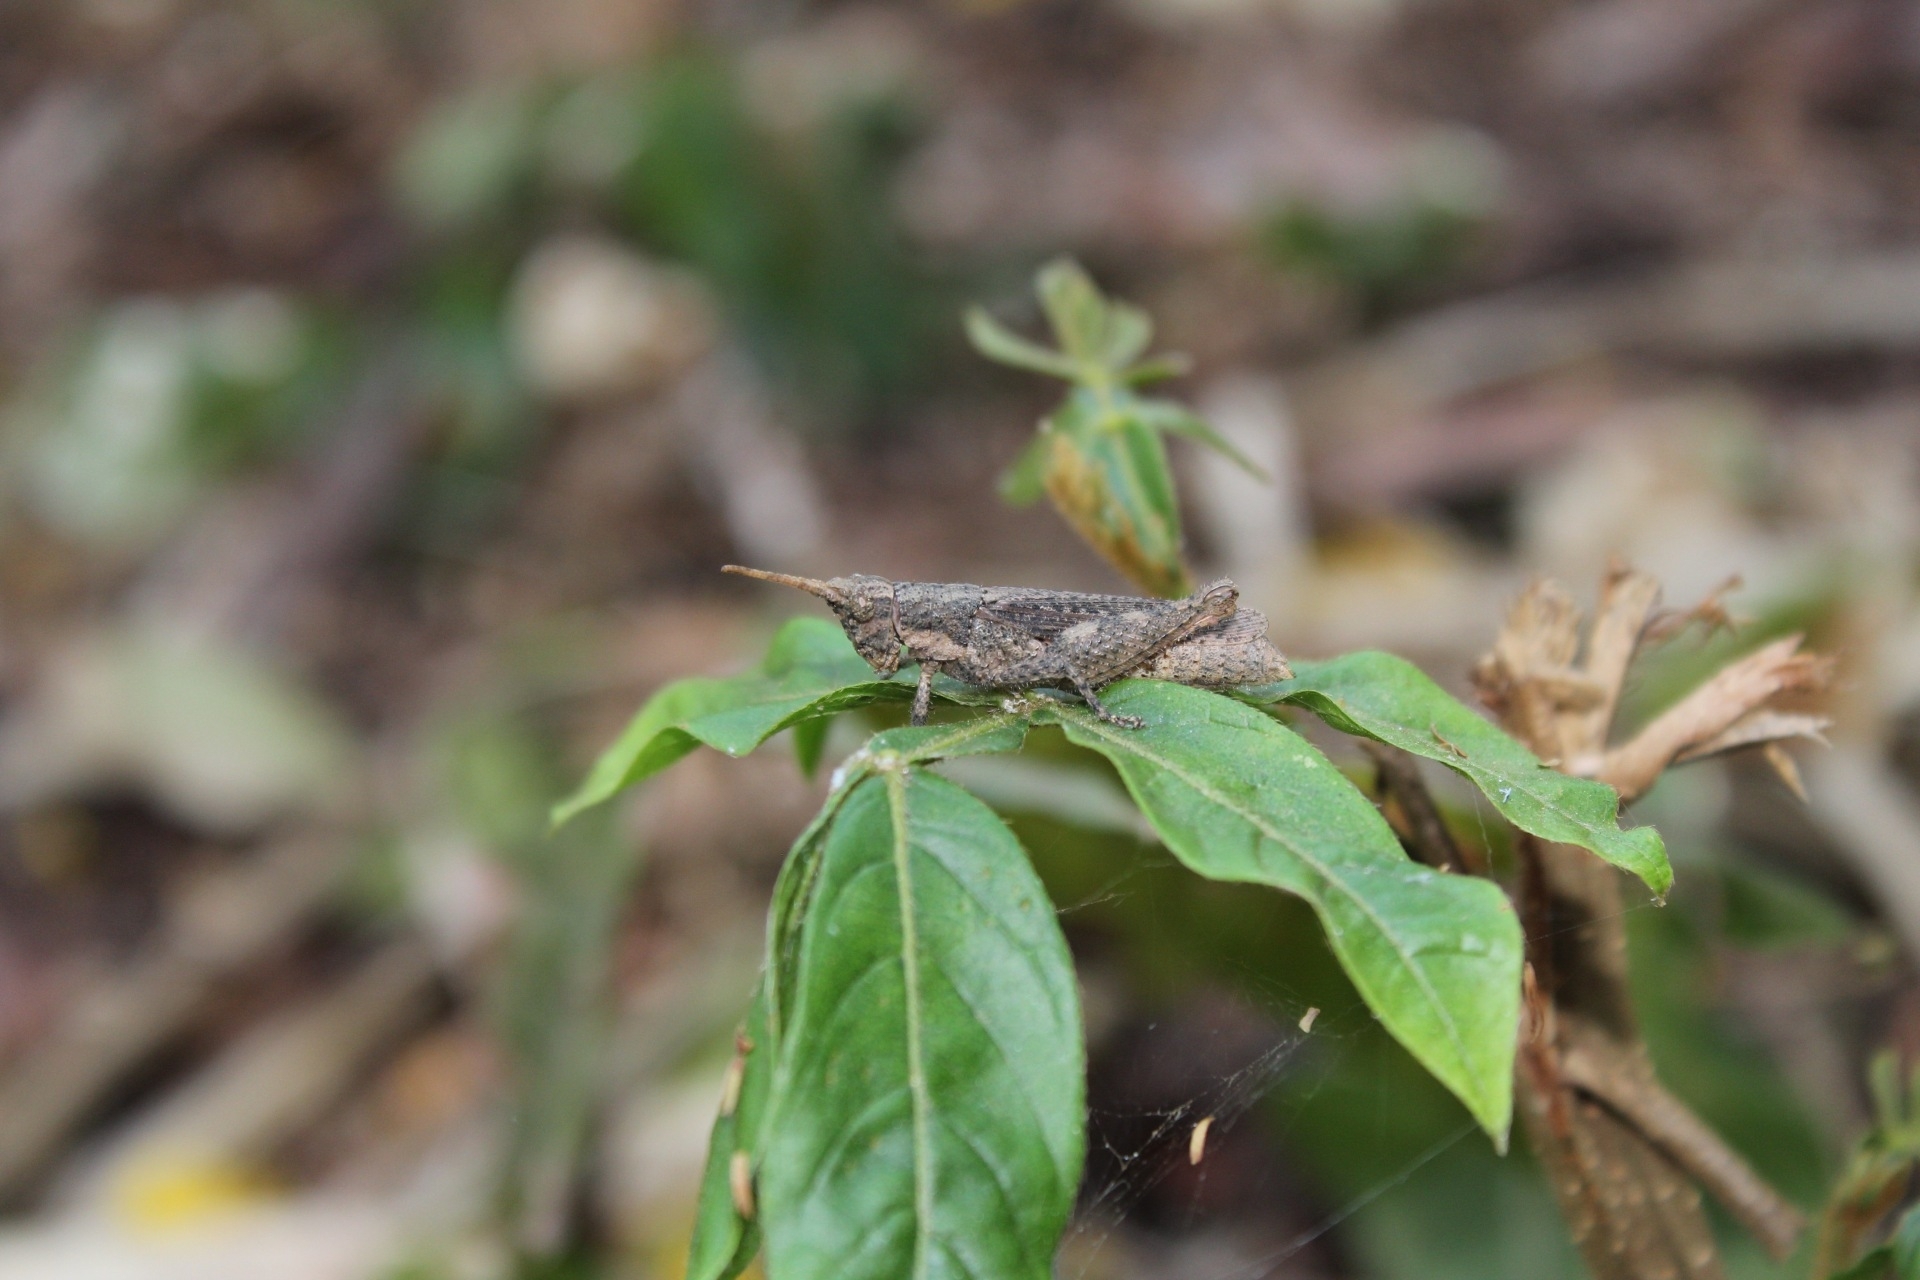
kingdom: Animalia
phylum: Arthropoda
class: Insecta
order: Orthoptera
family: Acrididae
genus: Vilerna
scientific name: Vilerna rugulosa
